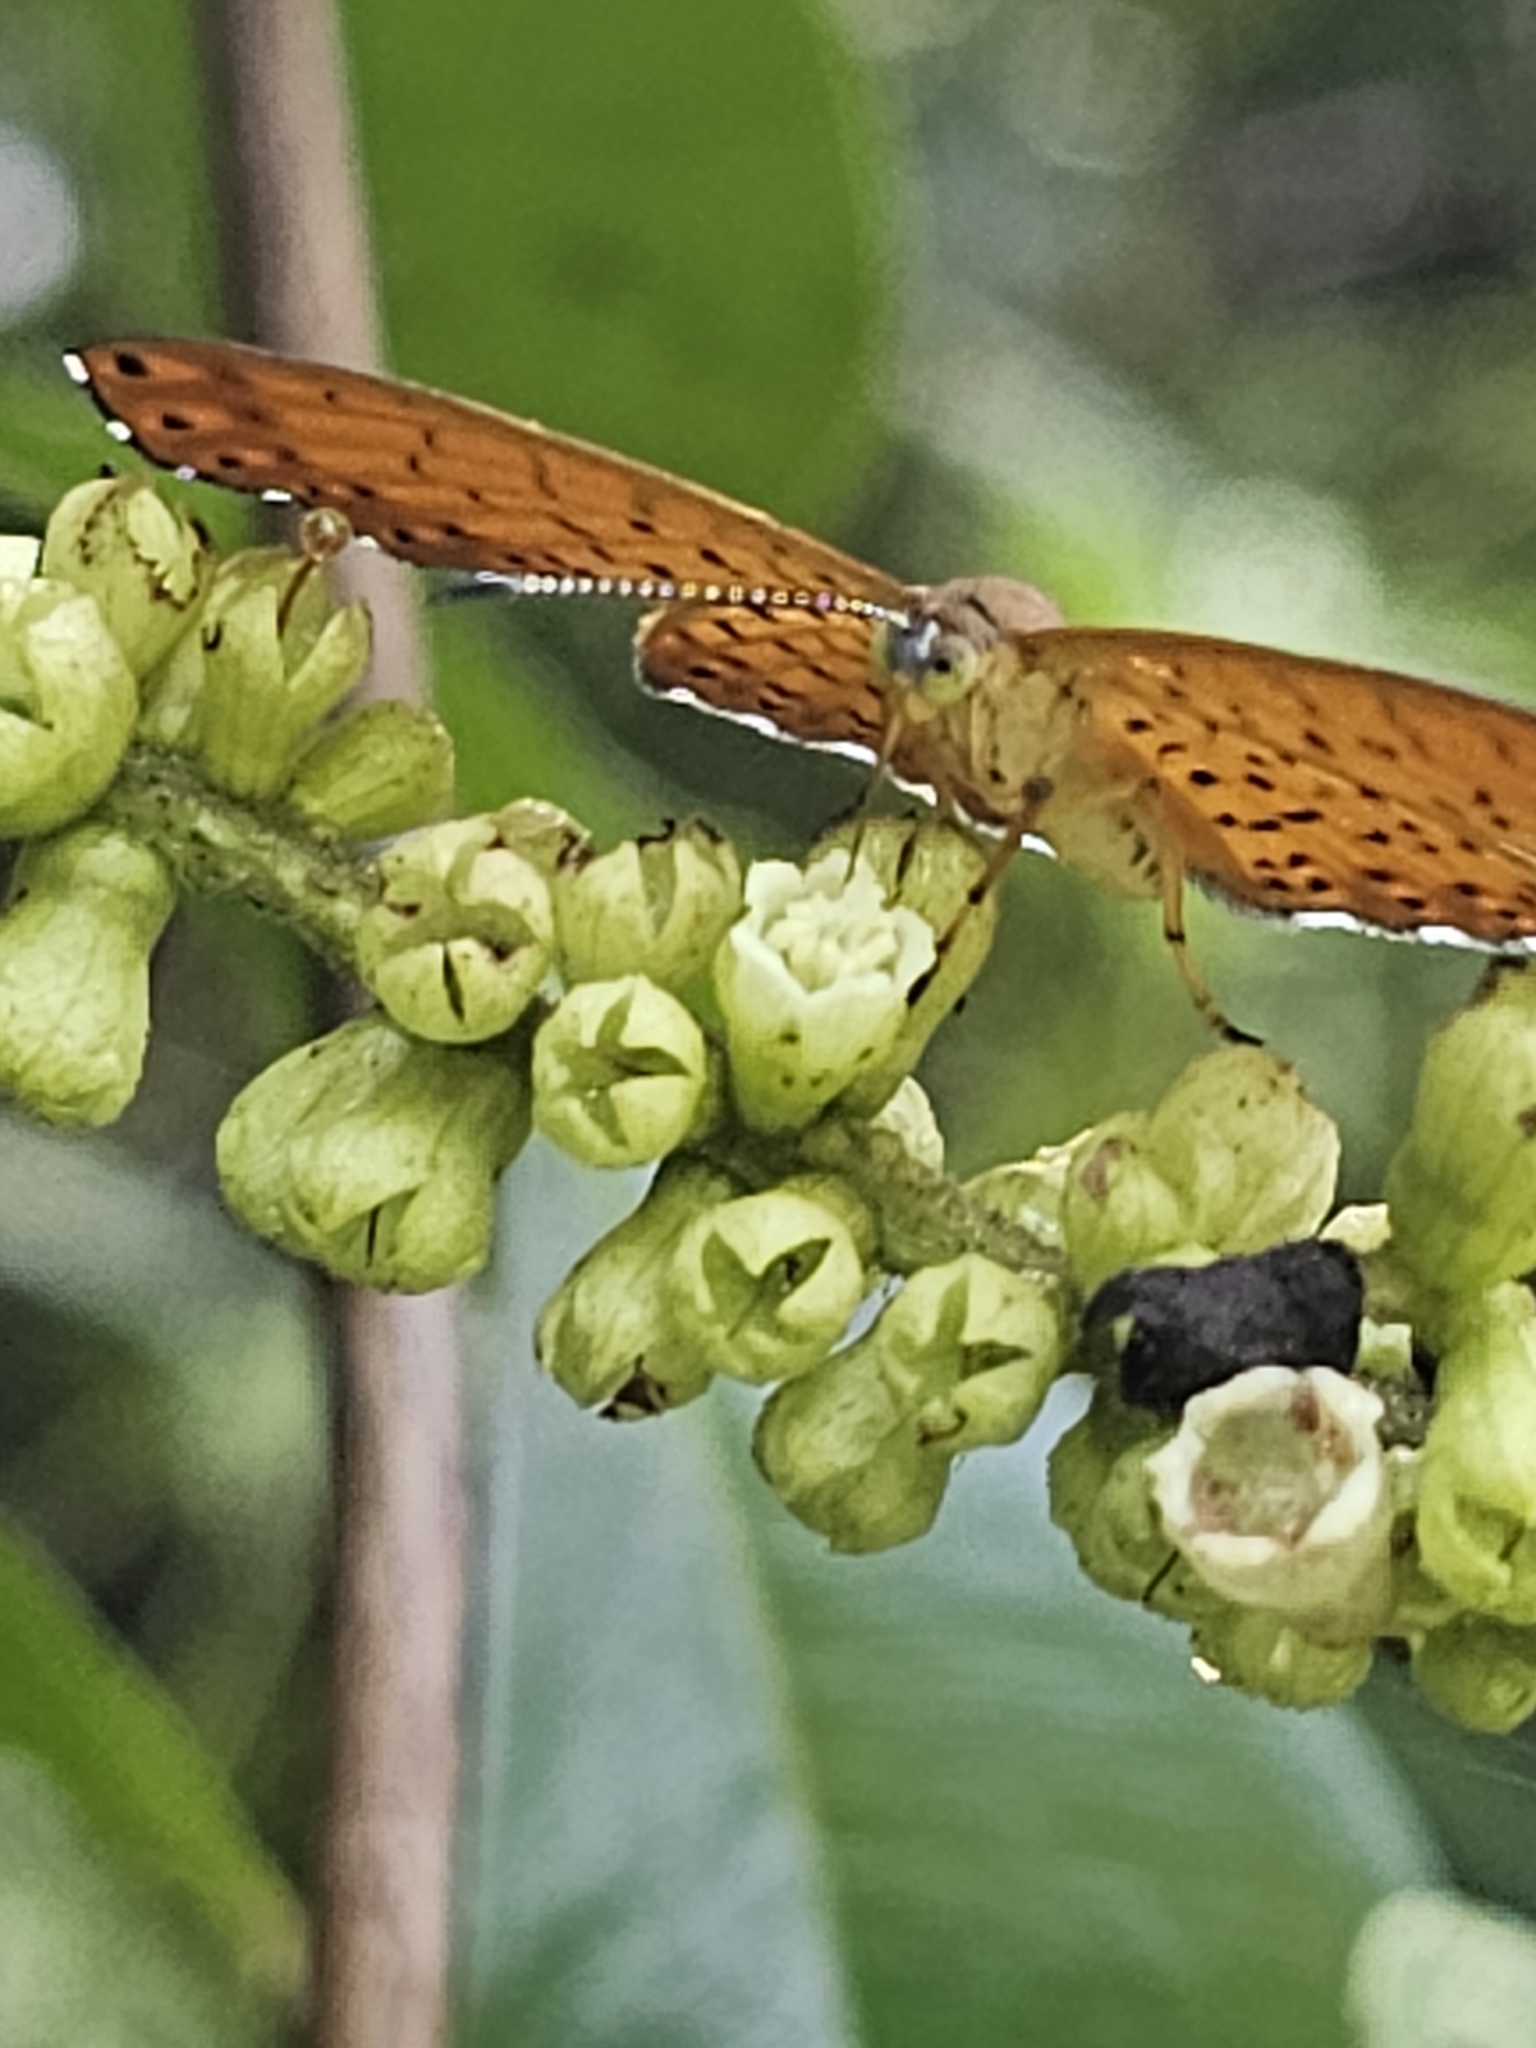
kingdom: Animalia
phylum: Arthropoda
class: Insecta
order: Lepidoptera
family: Riodinidae
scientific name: Riodinidae
